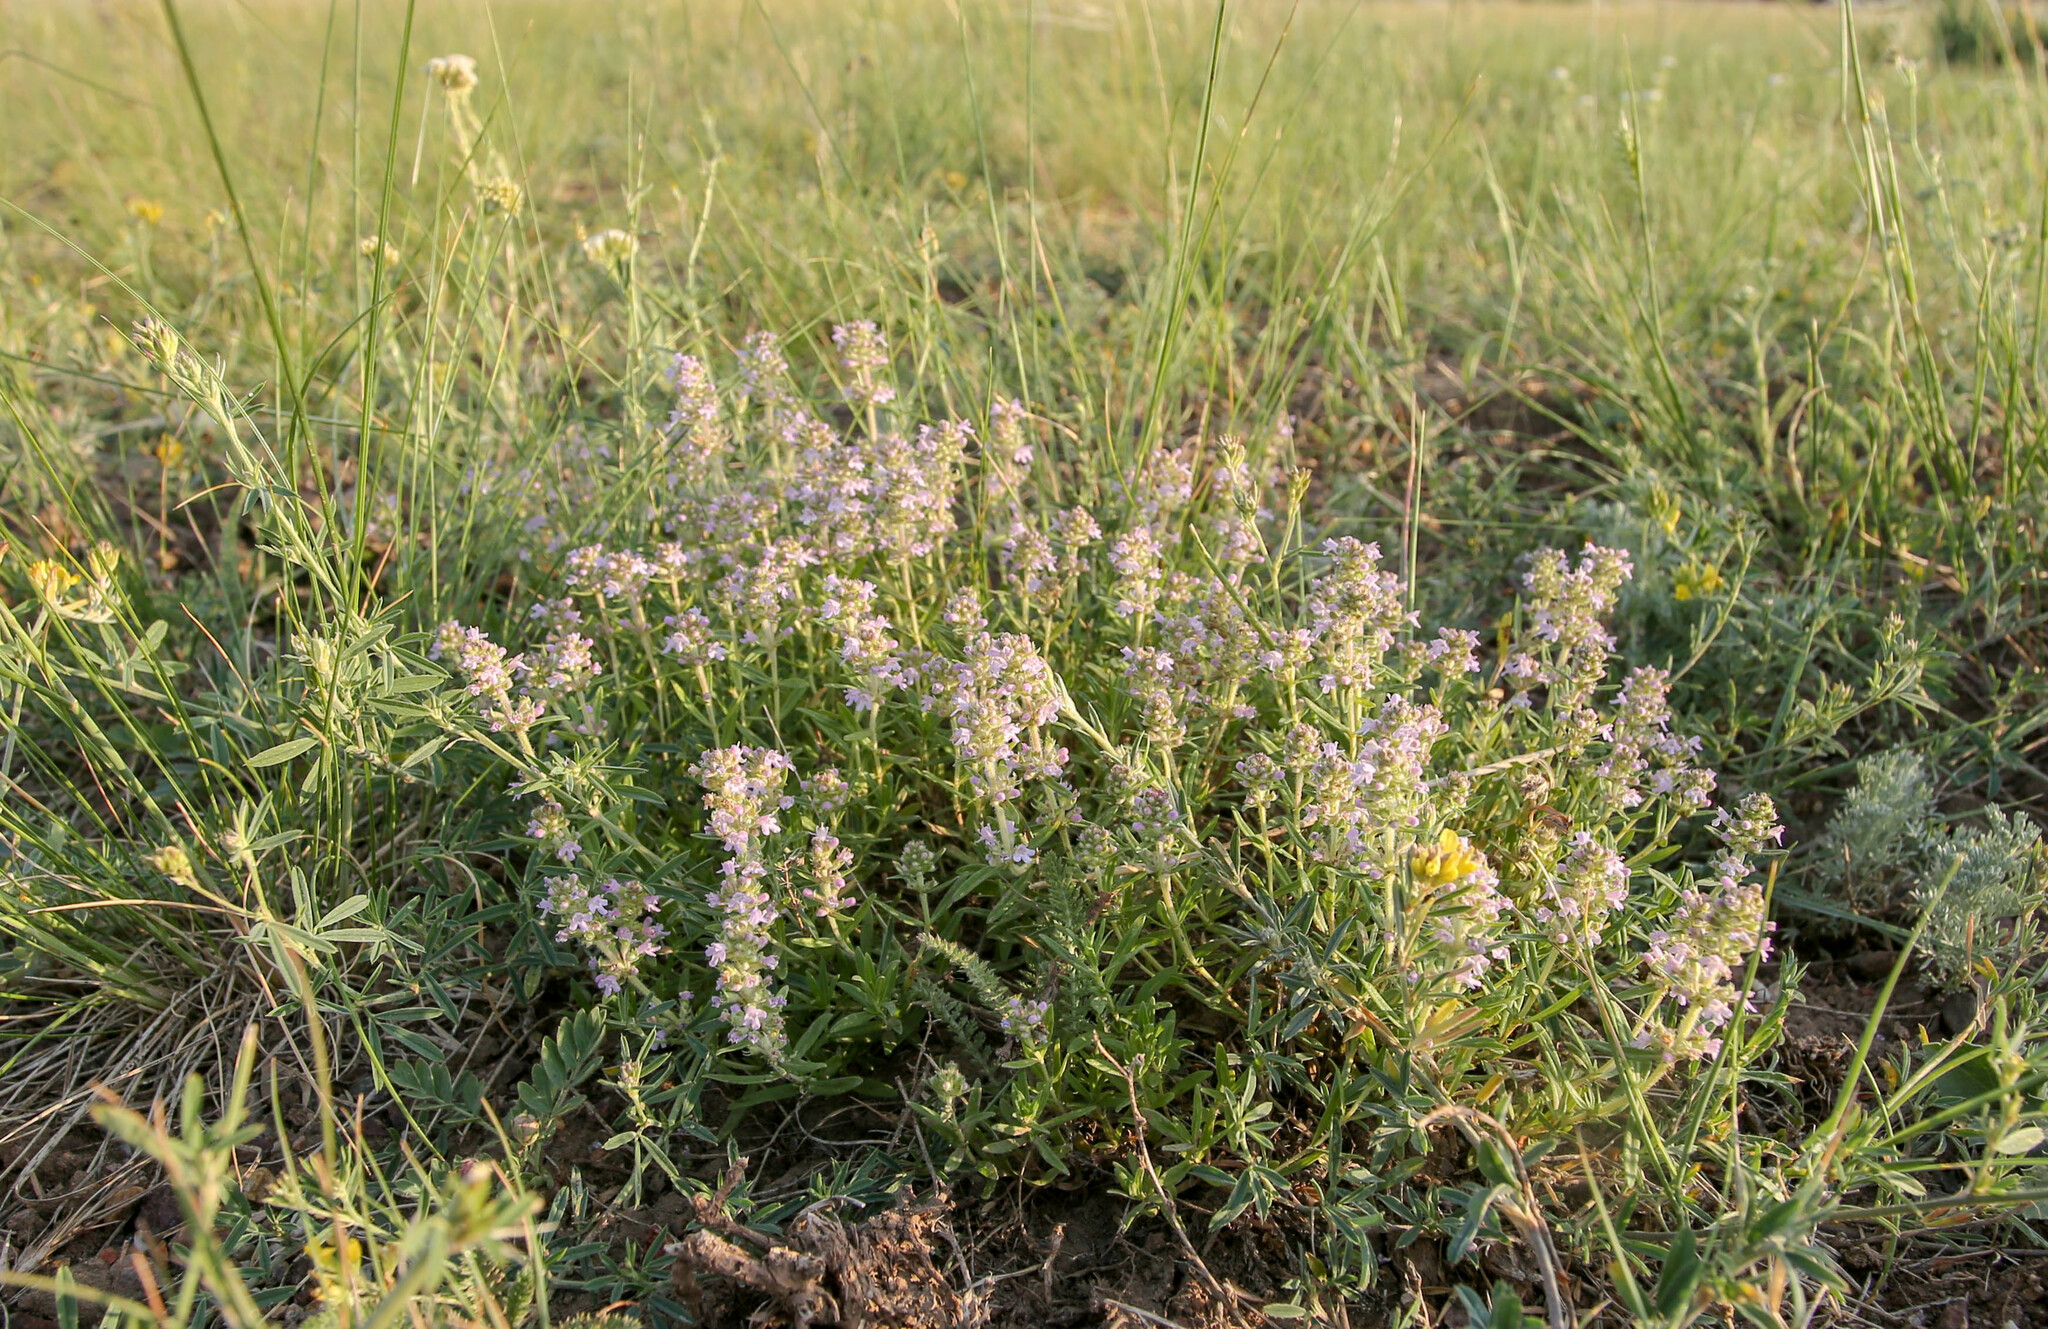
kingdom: Plantae
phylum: Tracheophyta
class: Magnoliopsida
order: Lamiales
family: Lamiaceae
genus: Thymus
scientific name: Thymus pannonicus
